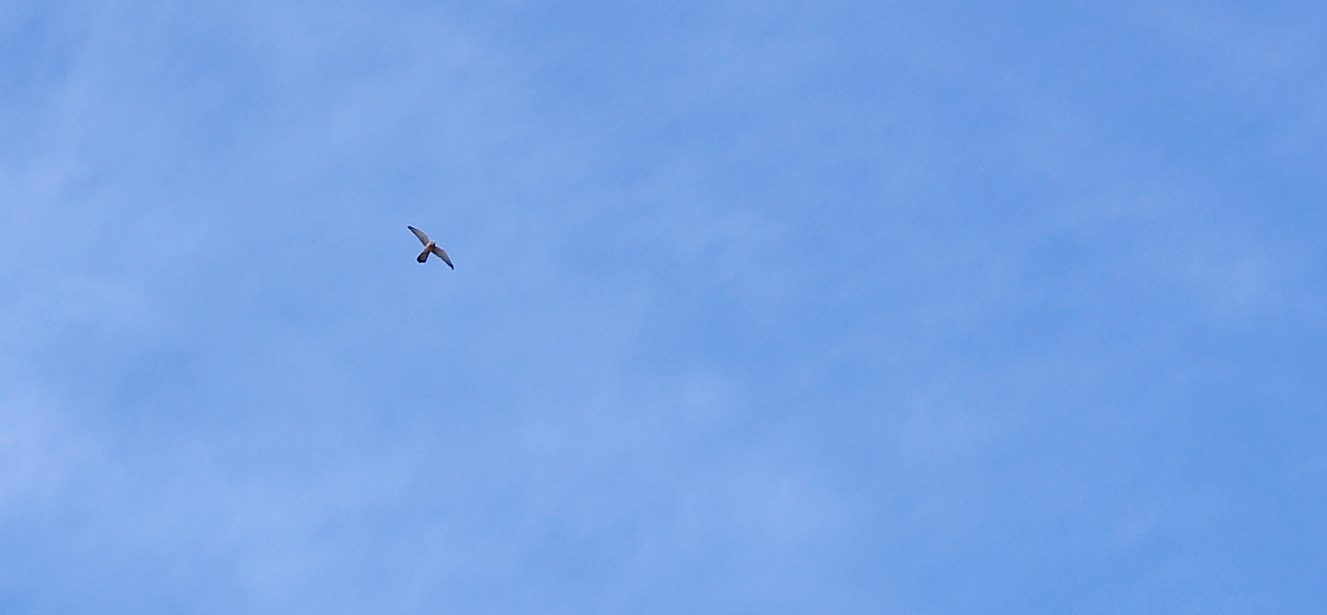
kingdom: Animalia
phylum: Chordata
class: Aves
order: Falconiformes
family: Falconidae
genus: Falco
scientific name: Falco tinnunculus
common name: Common kestrel
